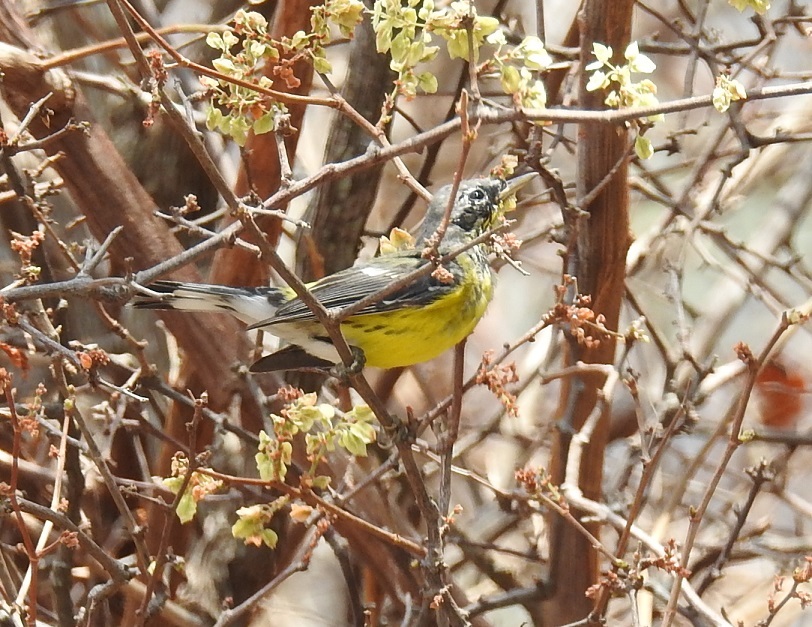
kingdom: Animalia
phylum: Chordata
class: Aves
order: Passeriformes
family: Parulidae
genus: Setophaga
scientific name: Setophaga magnolia
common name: Magnolia warbler
